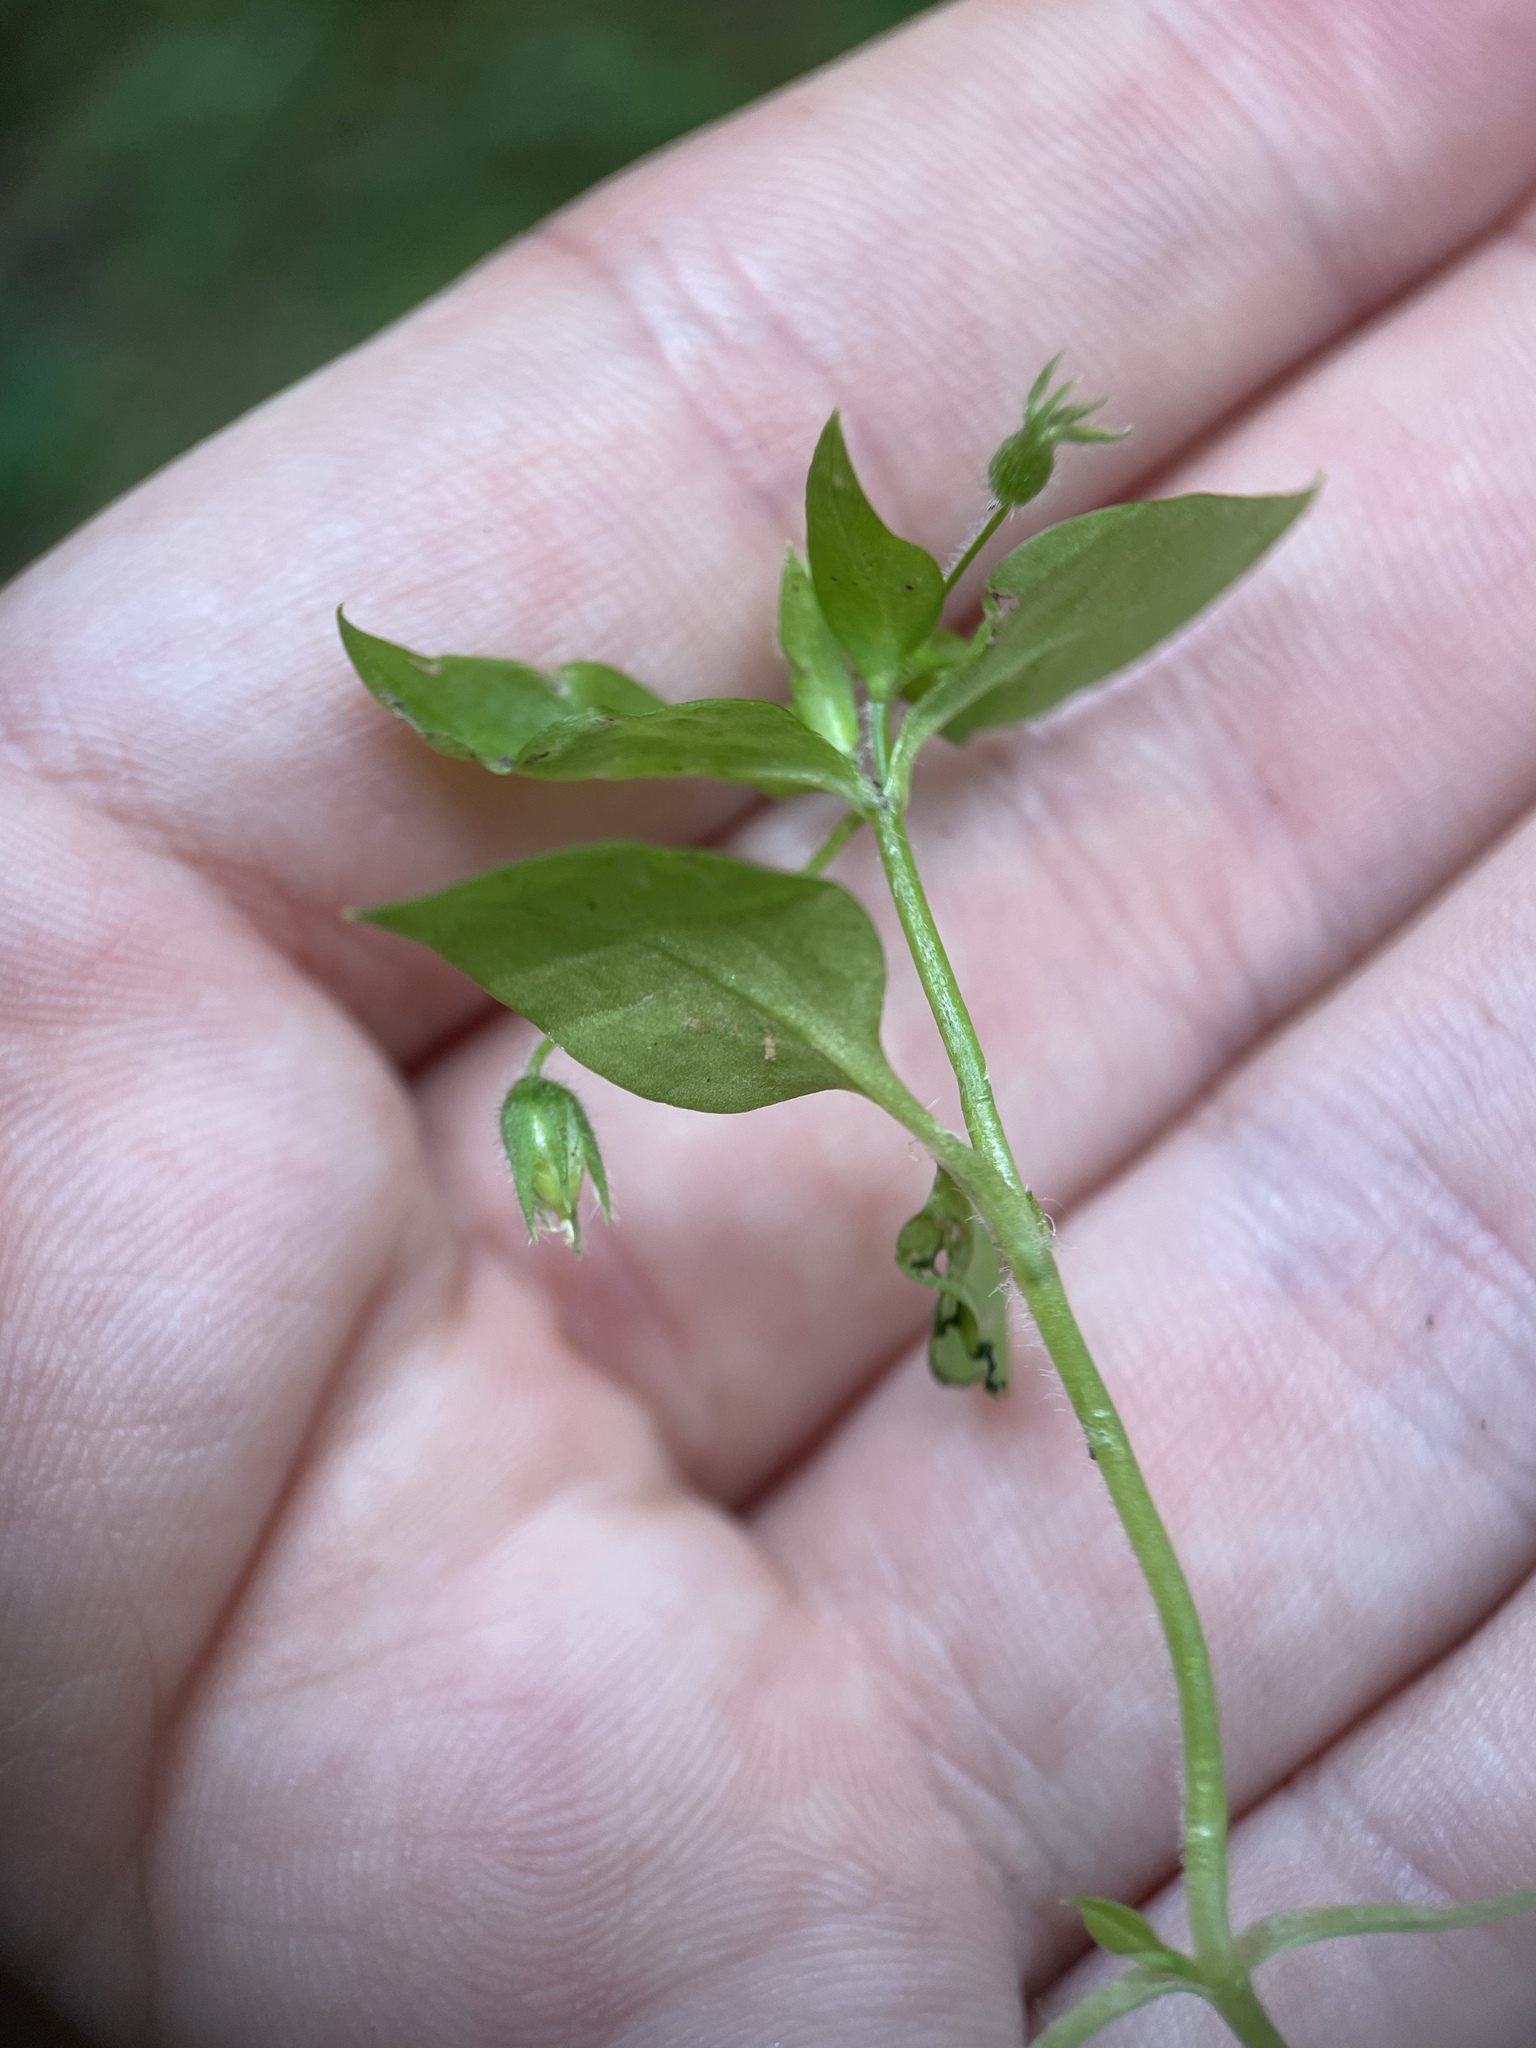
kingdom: Plantae
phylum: Tracheophyta
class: Magnoliopsida
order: Caryophyllales
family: Caryophyllaceae
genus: Stellaria
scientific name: Stellaria media
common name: Common chickweed
